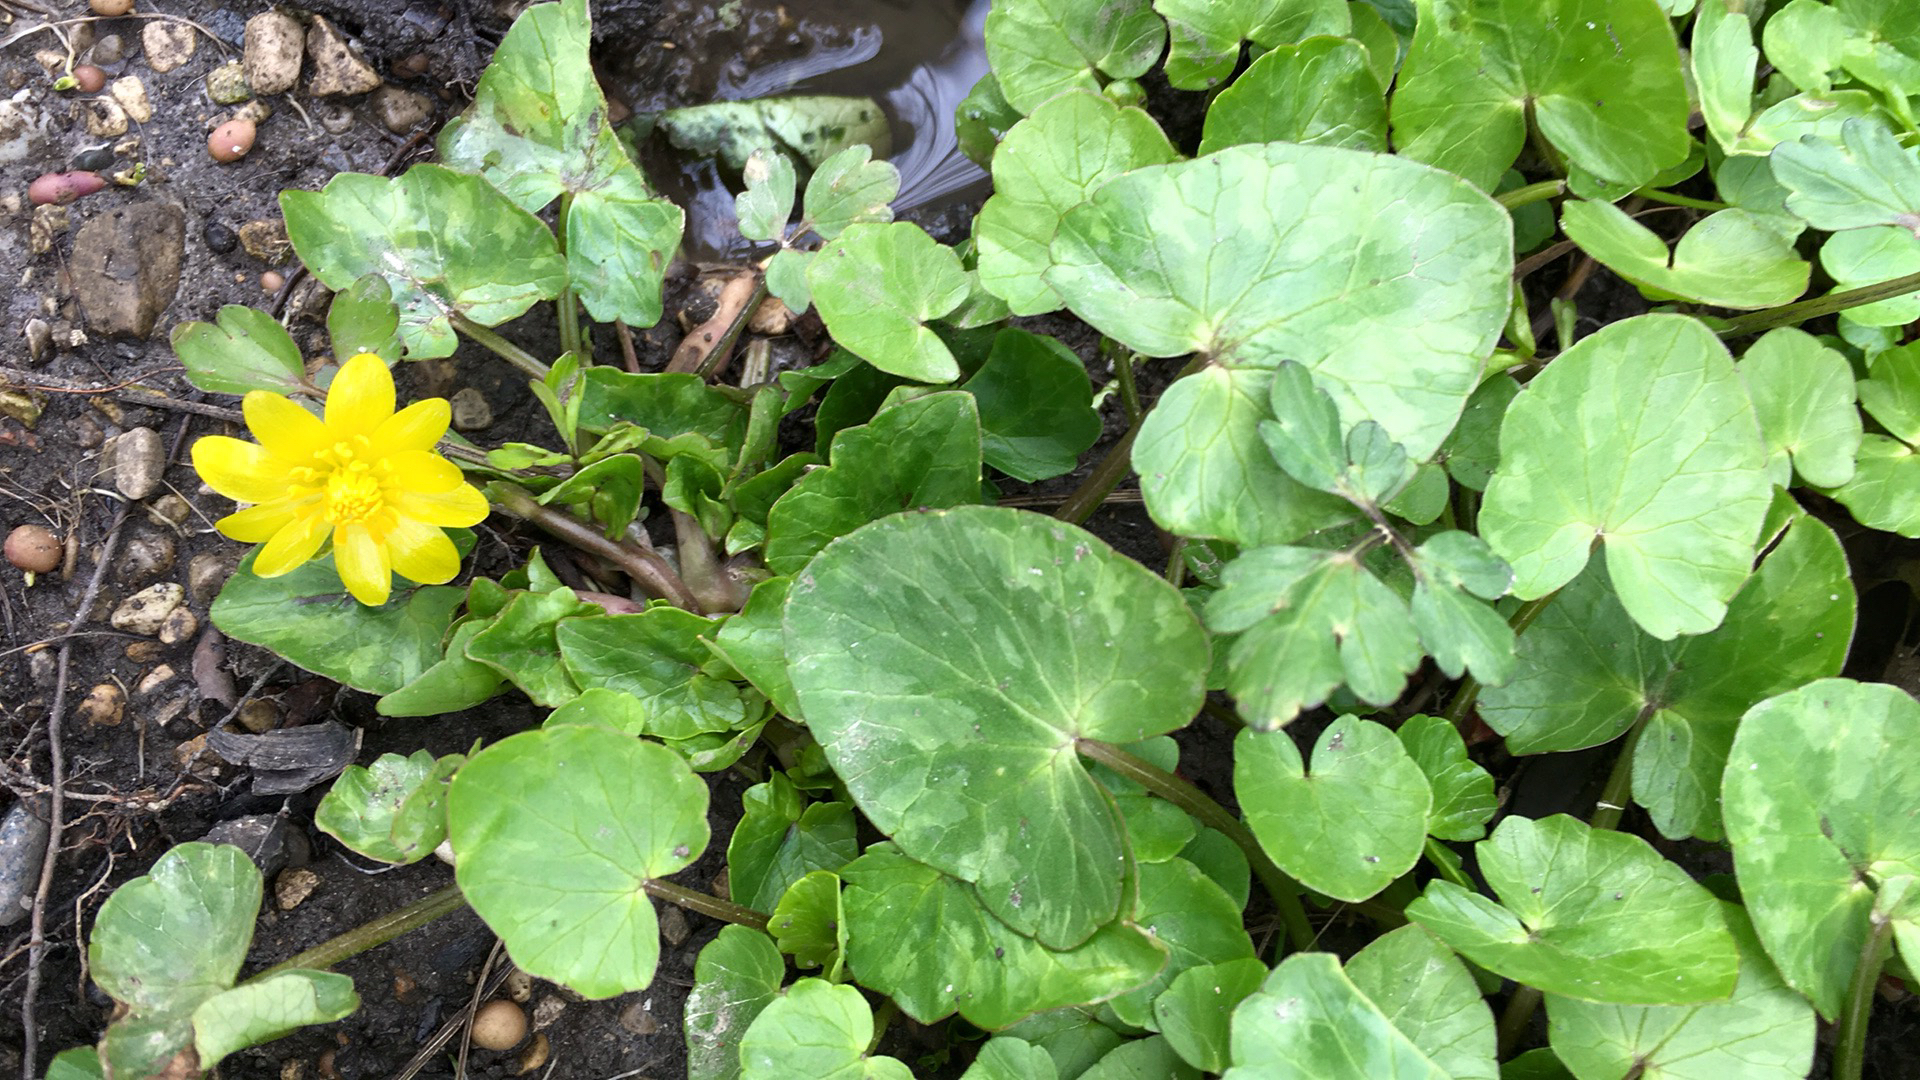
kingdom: Plantae
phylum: Tracheophyta
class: Magnoliopsida
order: Ranunculales
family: Ranunculaceae
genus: Ficaria
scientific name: Ficaria verna
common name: Lesser celandine
